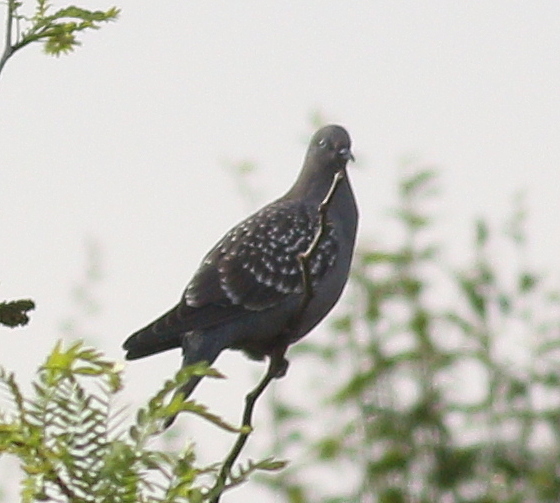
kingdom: Animalia
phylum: Chordata
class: Aves
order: Columbiformes
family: Columbidae
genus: Patagioenas
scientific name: Patagioenas maculosa
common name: Spot-winged pigeon
